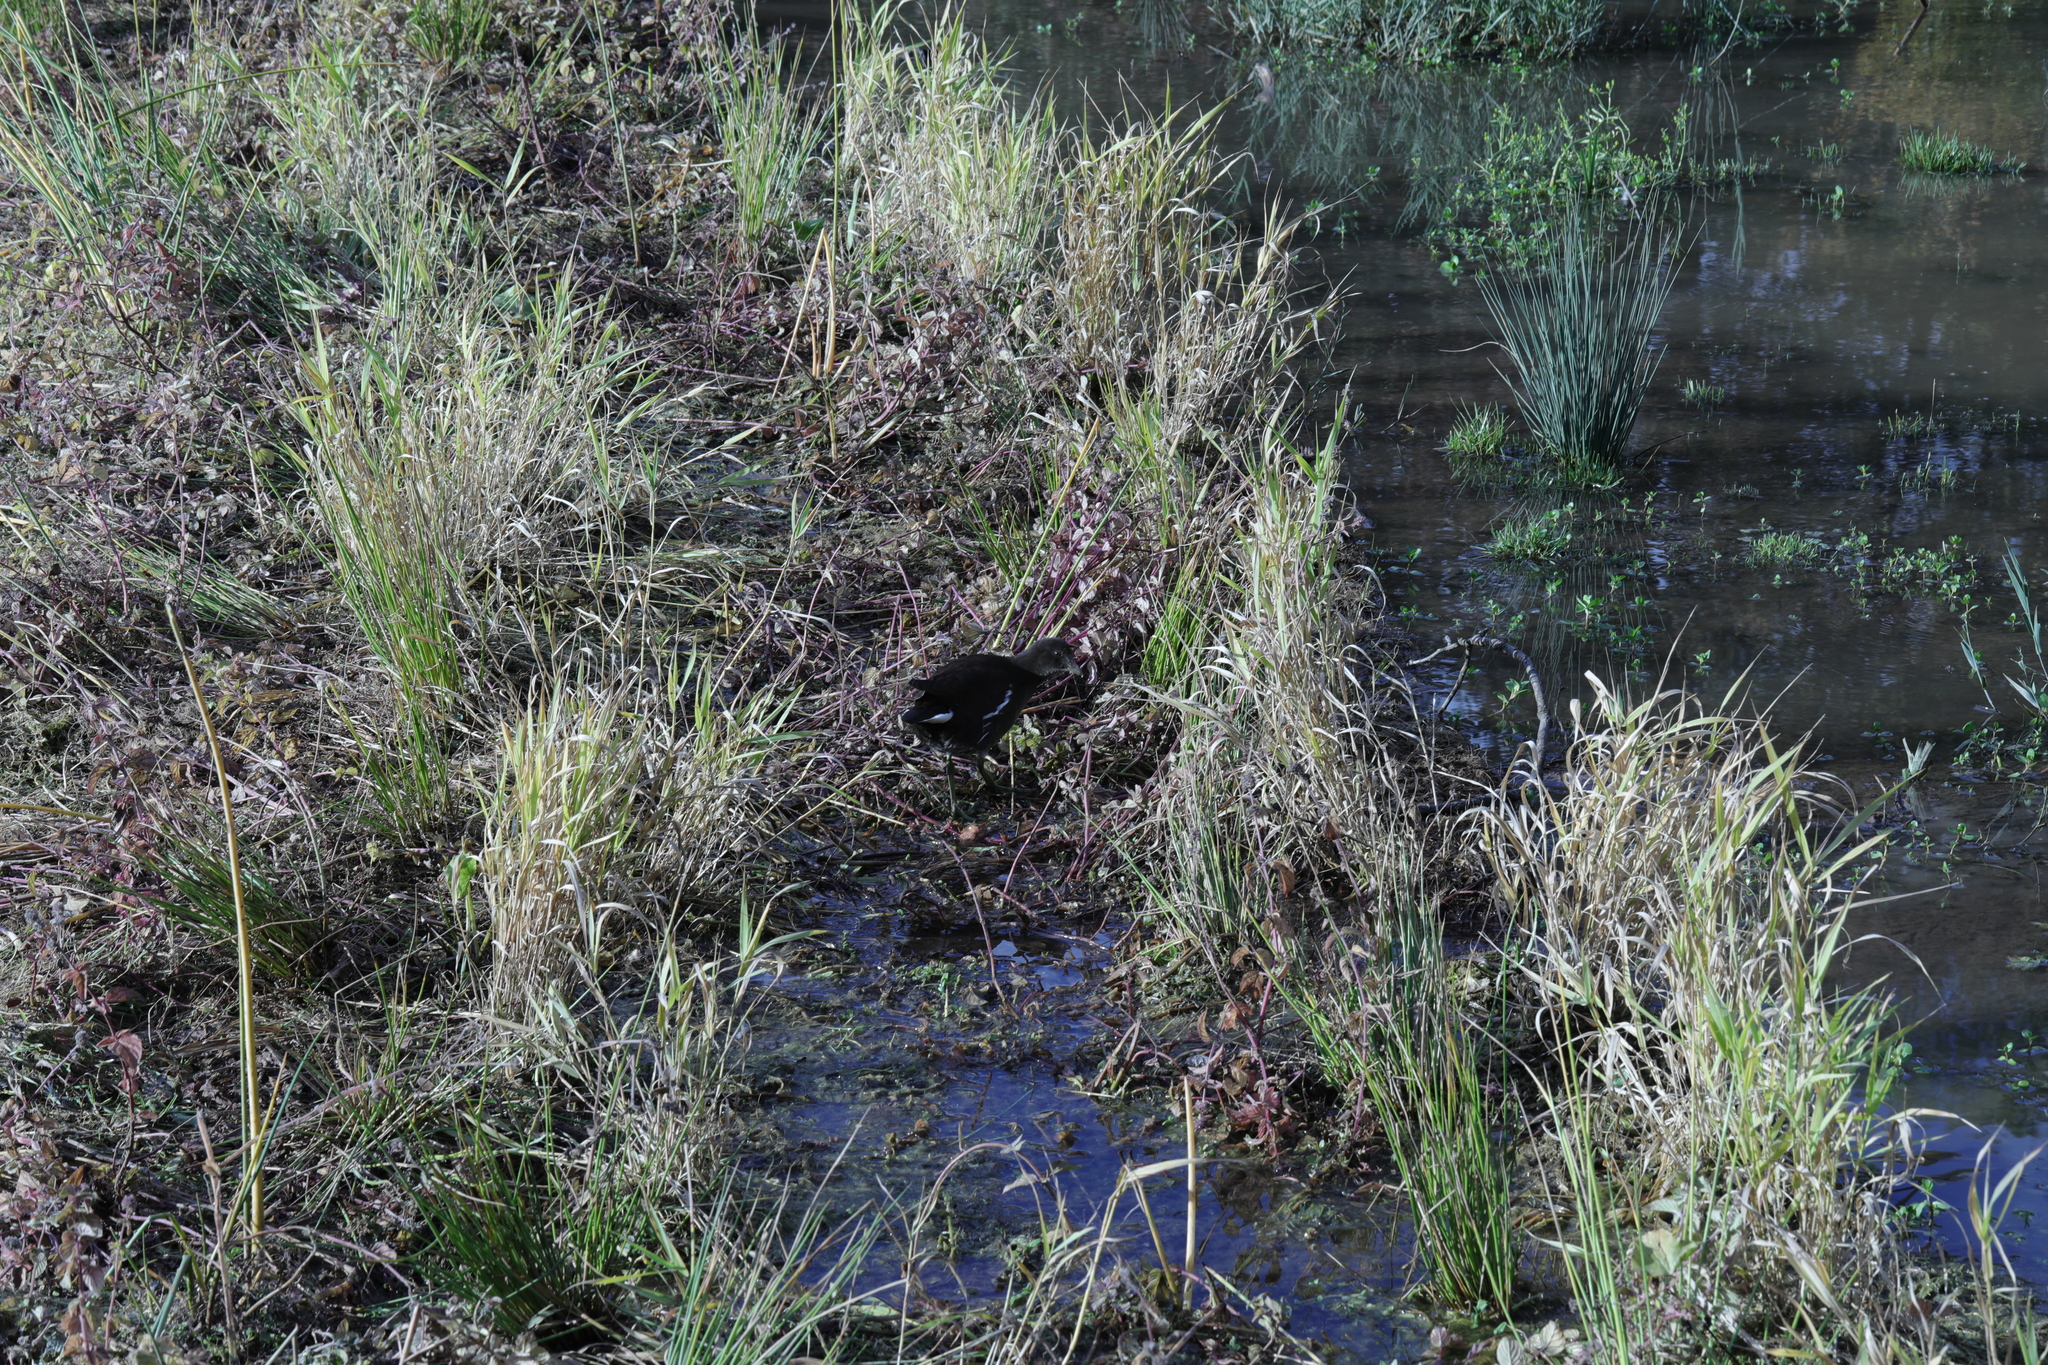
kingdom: Animalia
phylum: Chordata
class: Aves
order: Gruiformes
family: Rallidae
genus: Gallinula
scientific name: Gallinula chloropus
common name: Common moorhen
